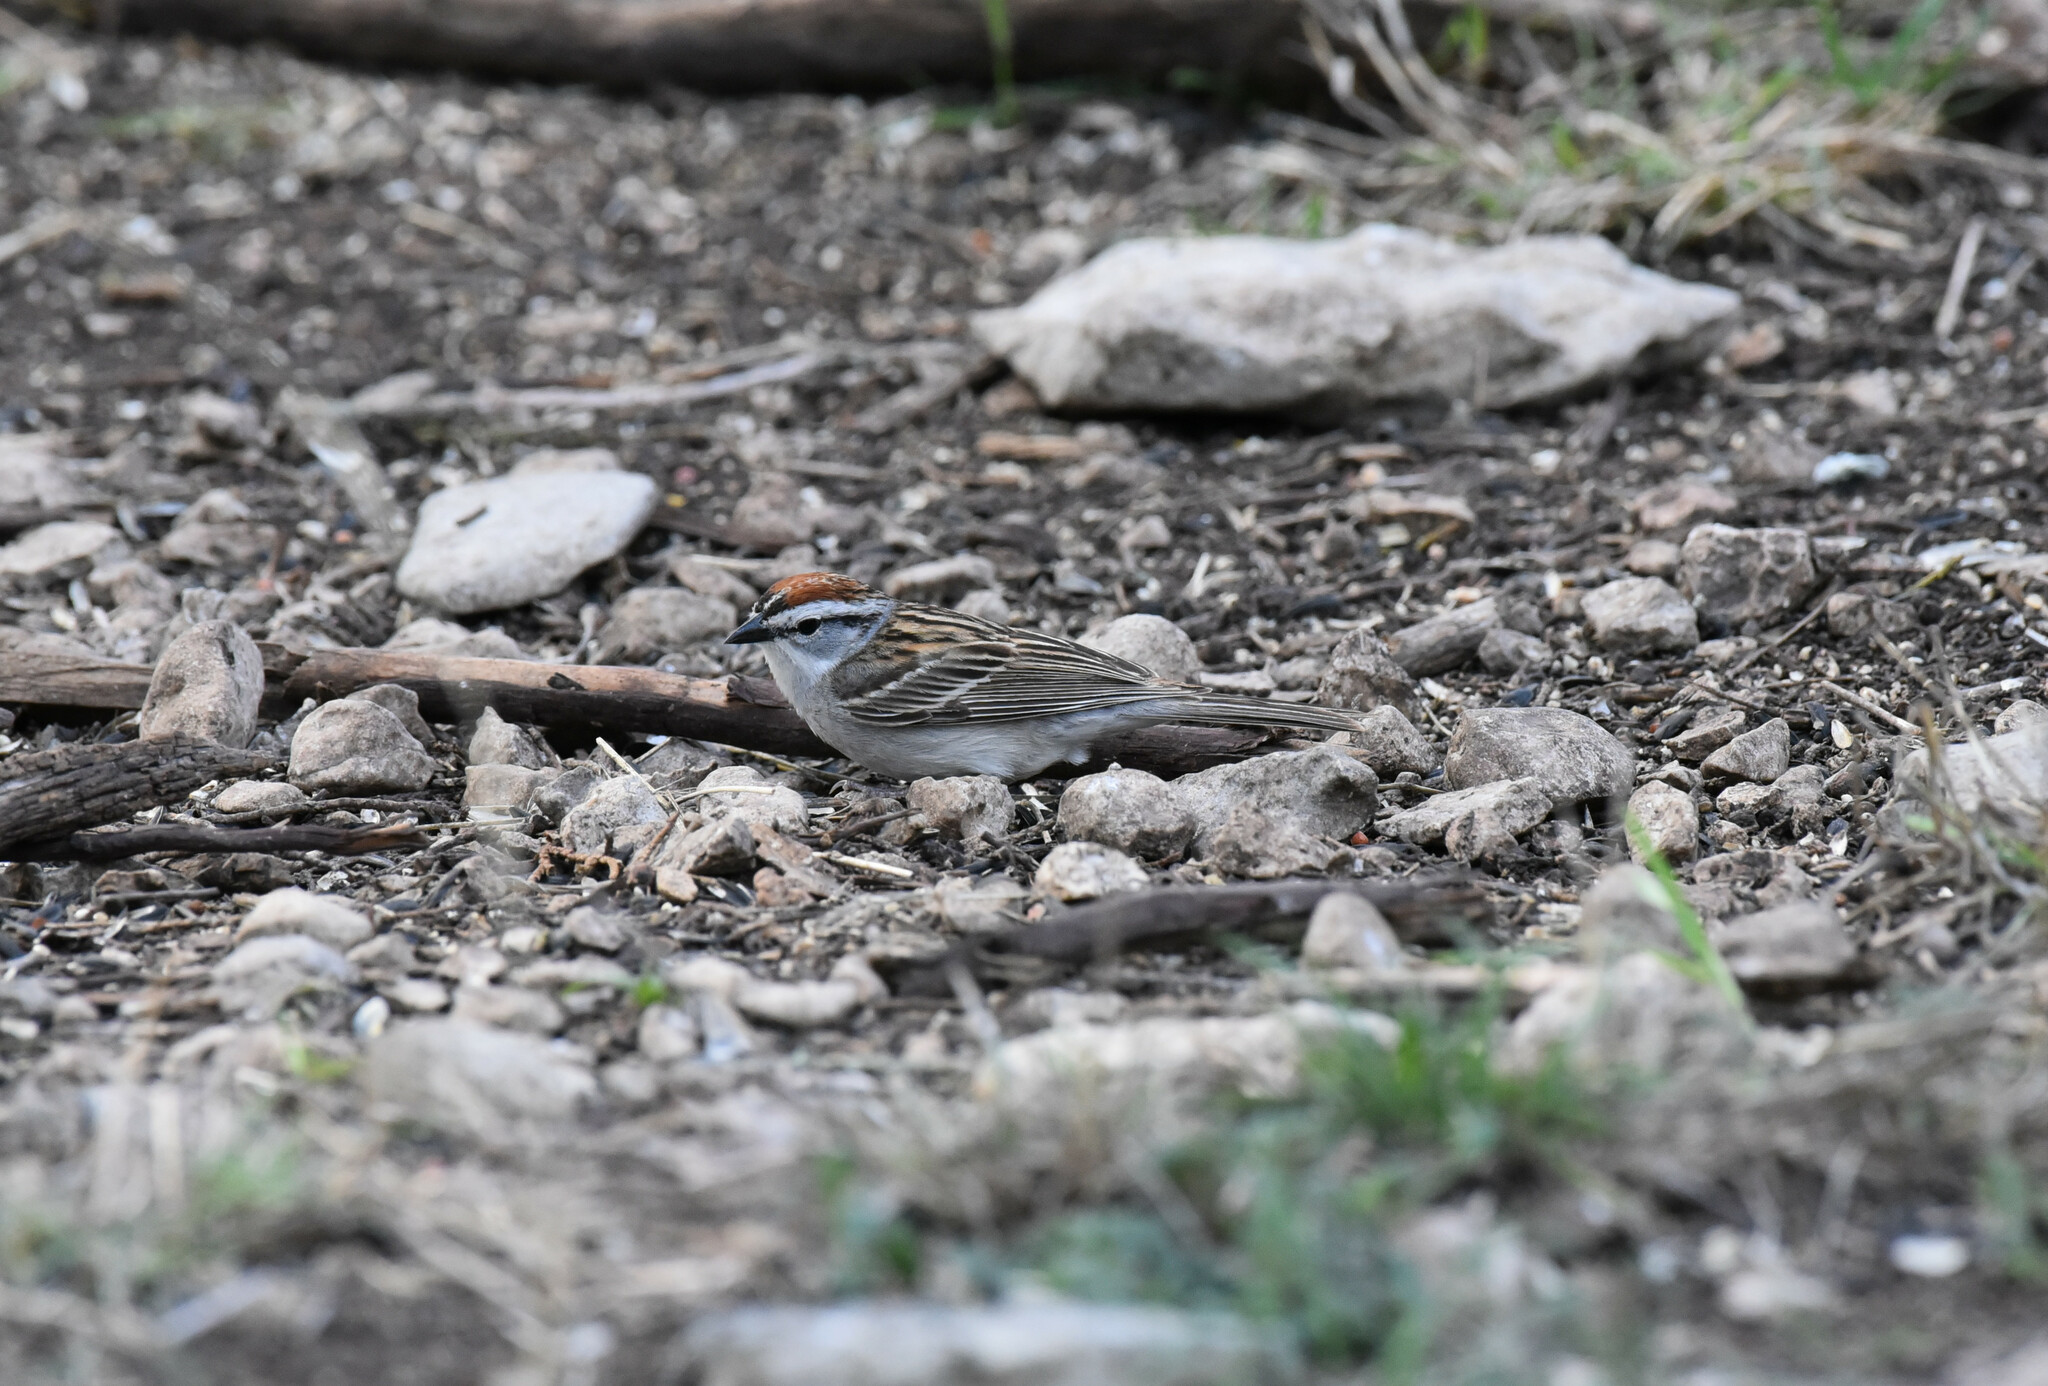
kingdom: Animalia
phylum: Chordata
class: Aves
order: Passeriformes
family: Passerellidae
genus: Spizella
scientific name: Spizella passerina
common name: Chipping sparrow
